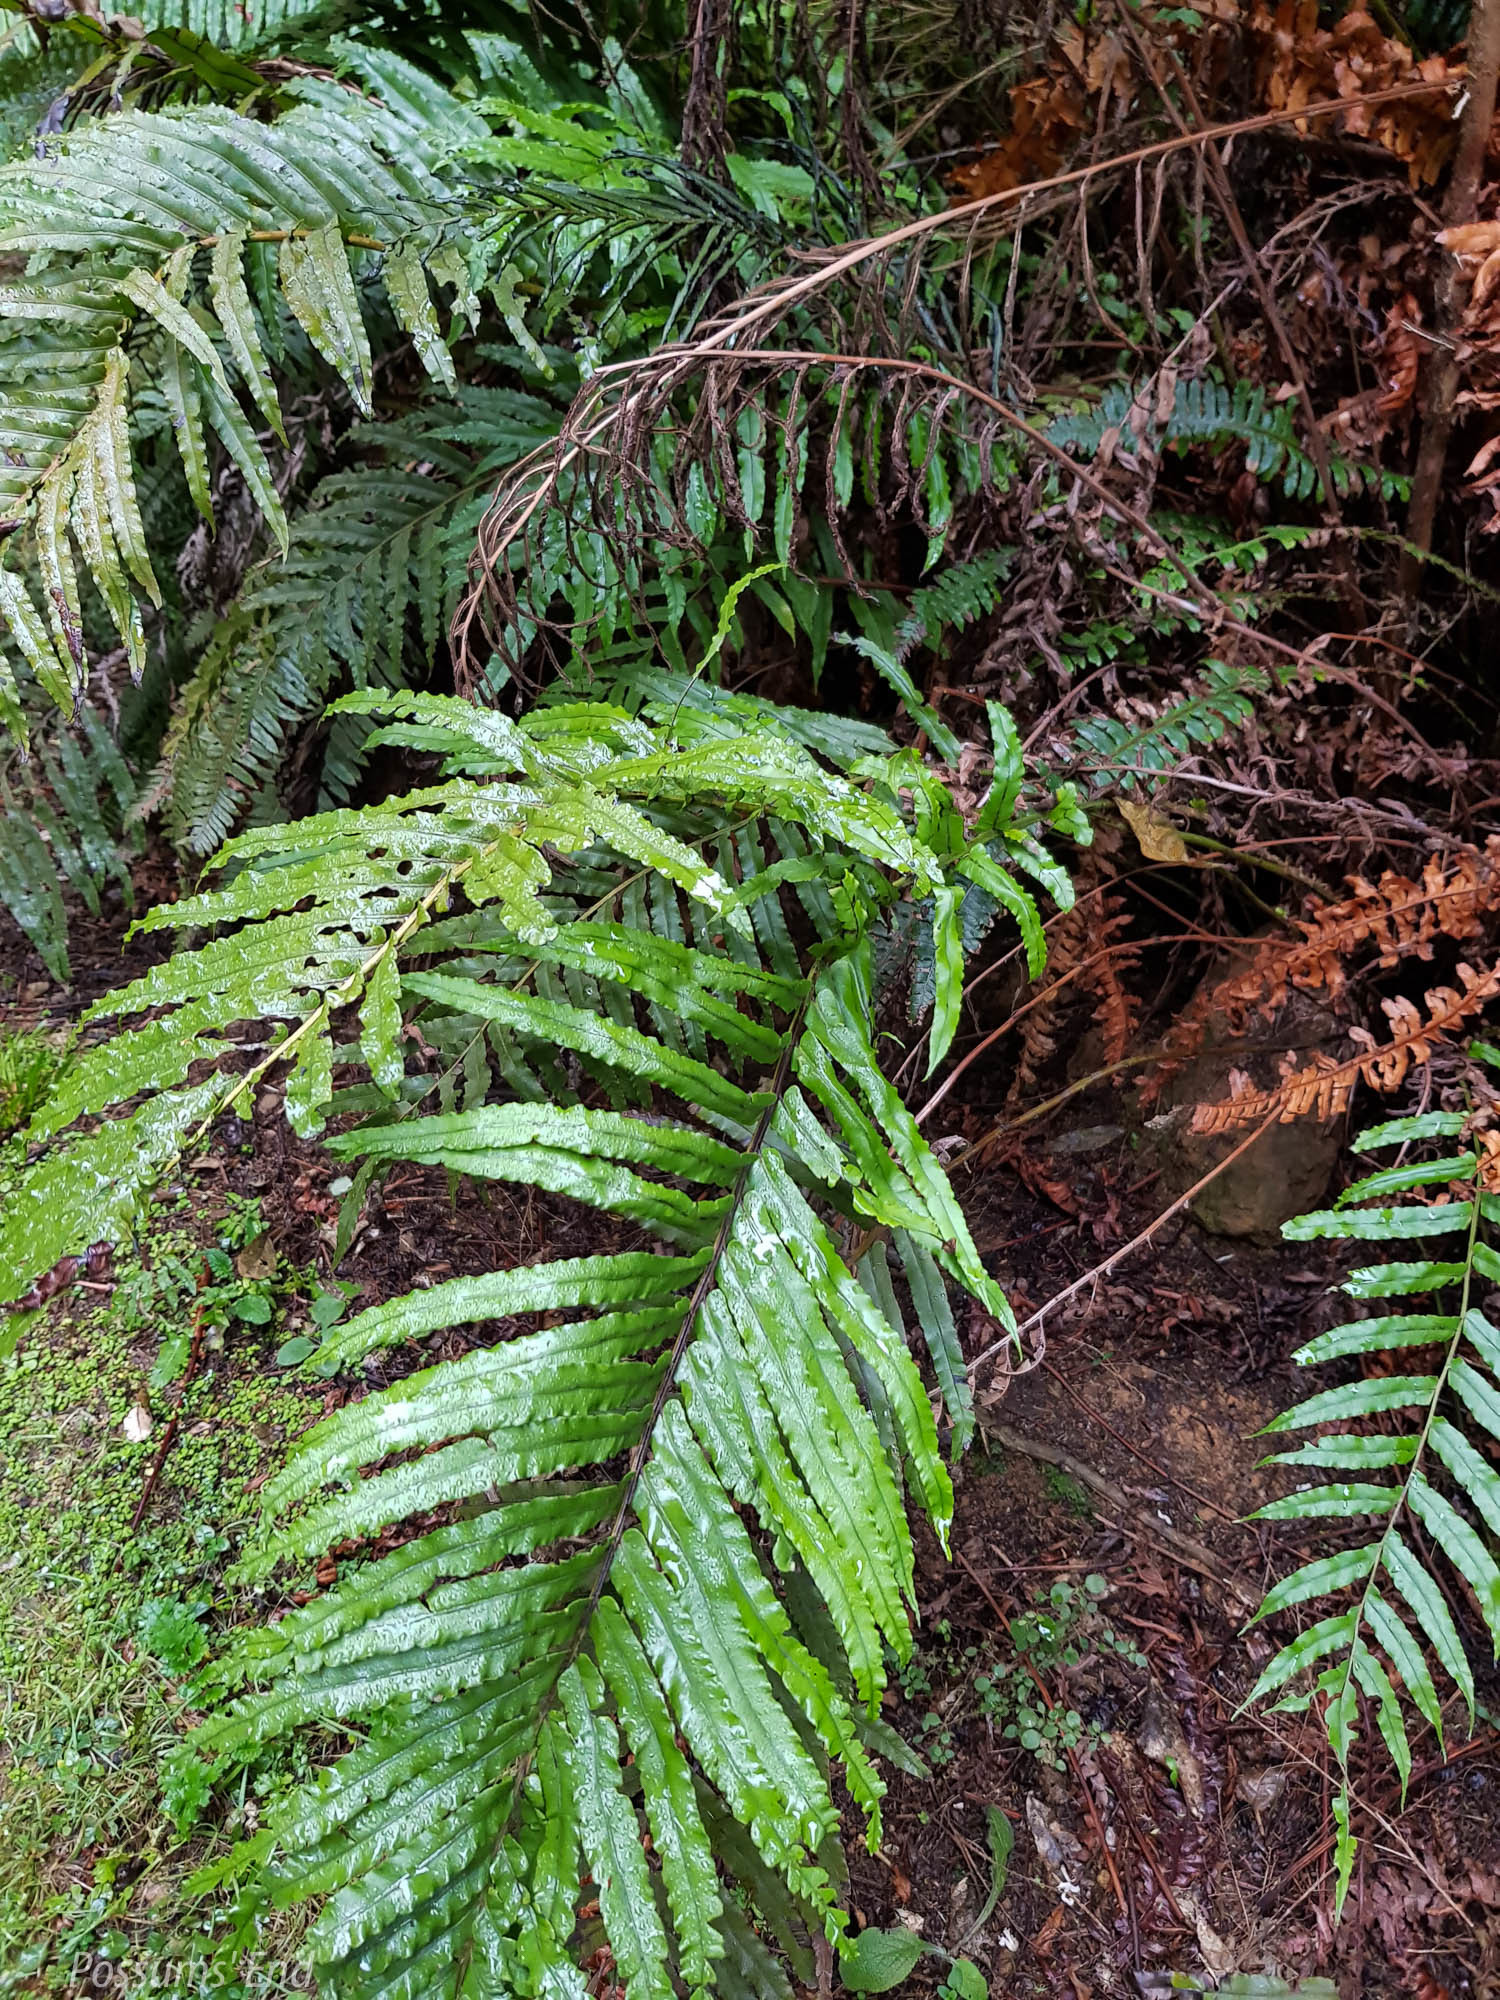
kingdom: Plantae
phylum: Tracheophyta
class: Polypodiopsida
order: Polypodiales
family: Blechnaceae
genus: Parablechnum
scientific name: Parablechnum novae-zelandiae
